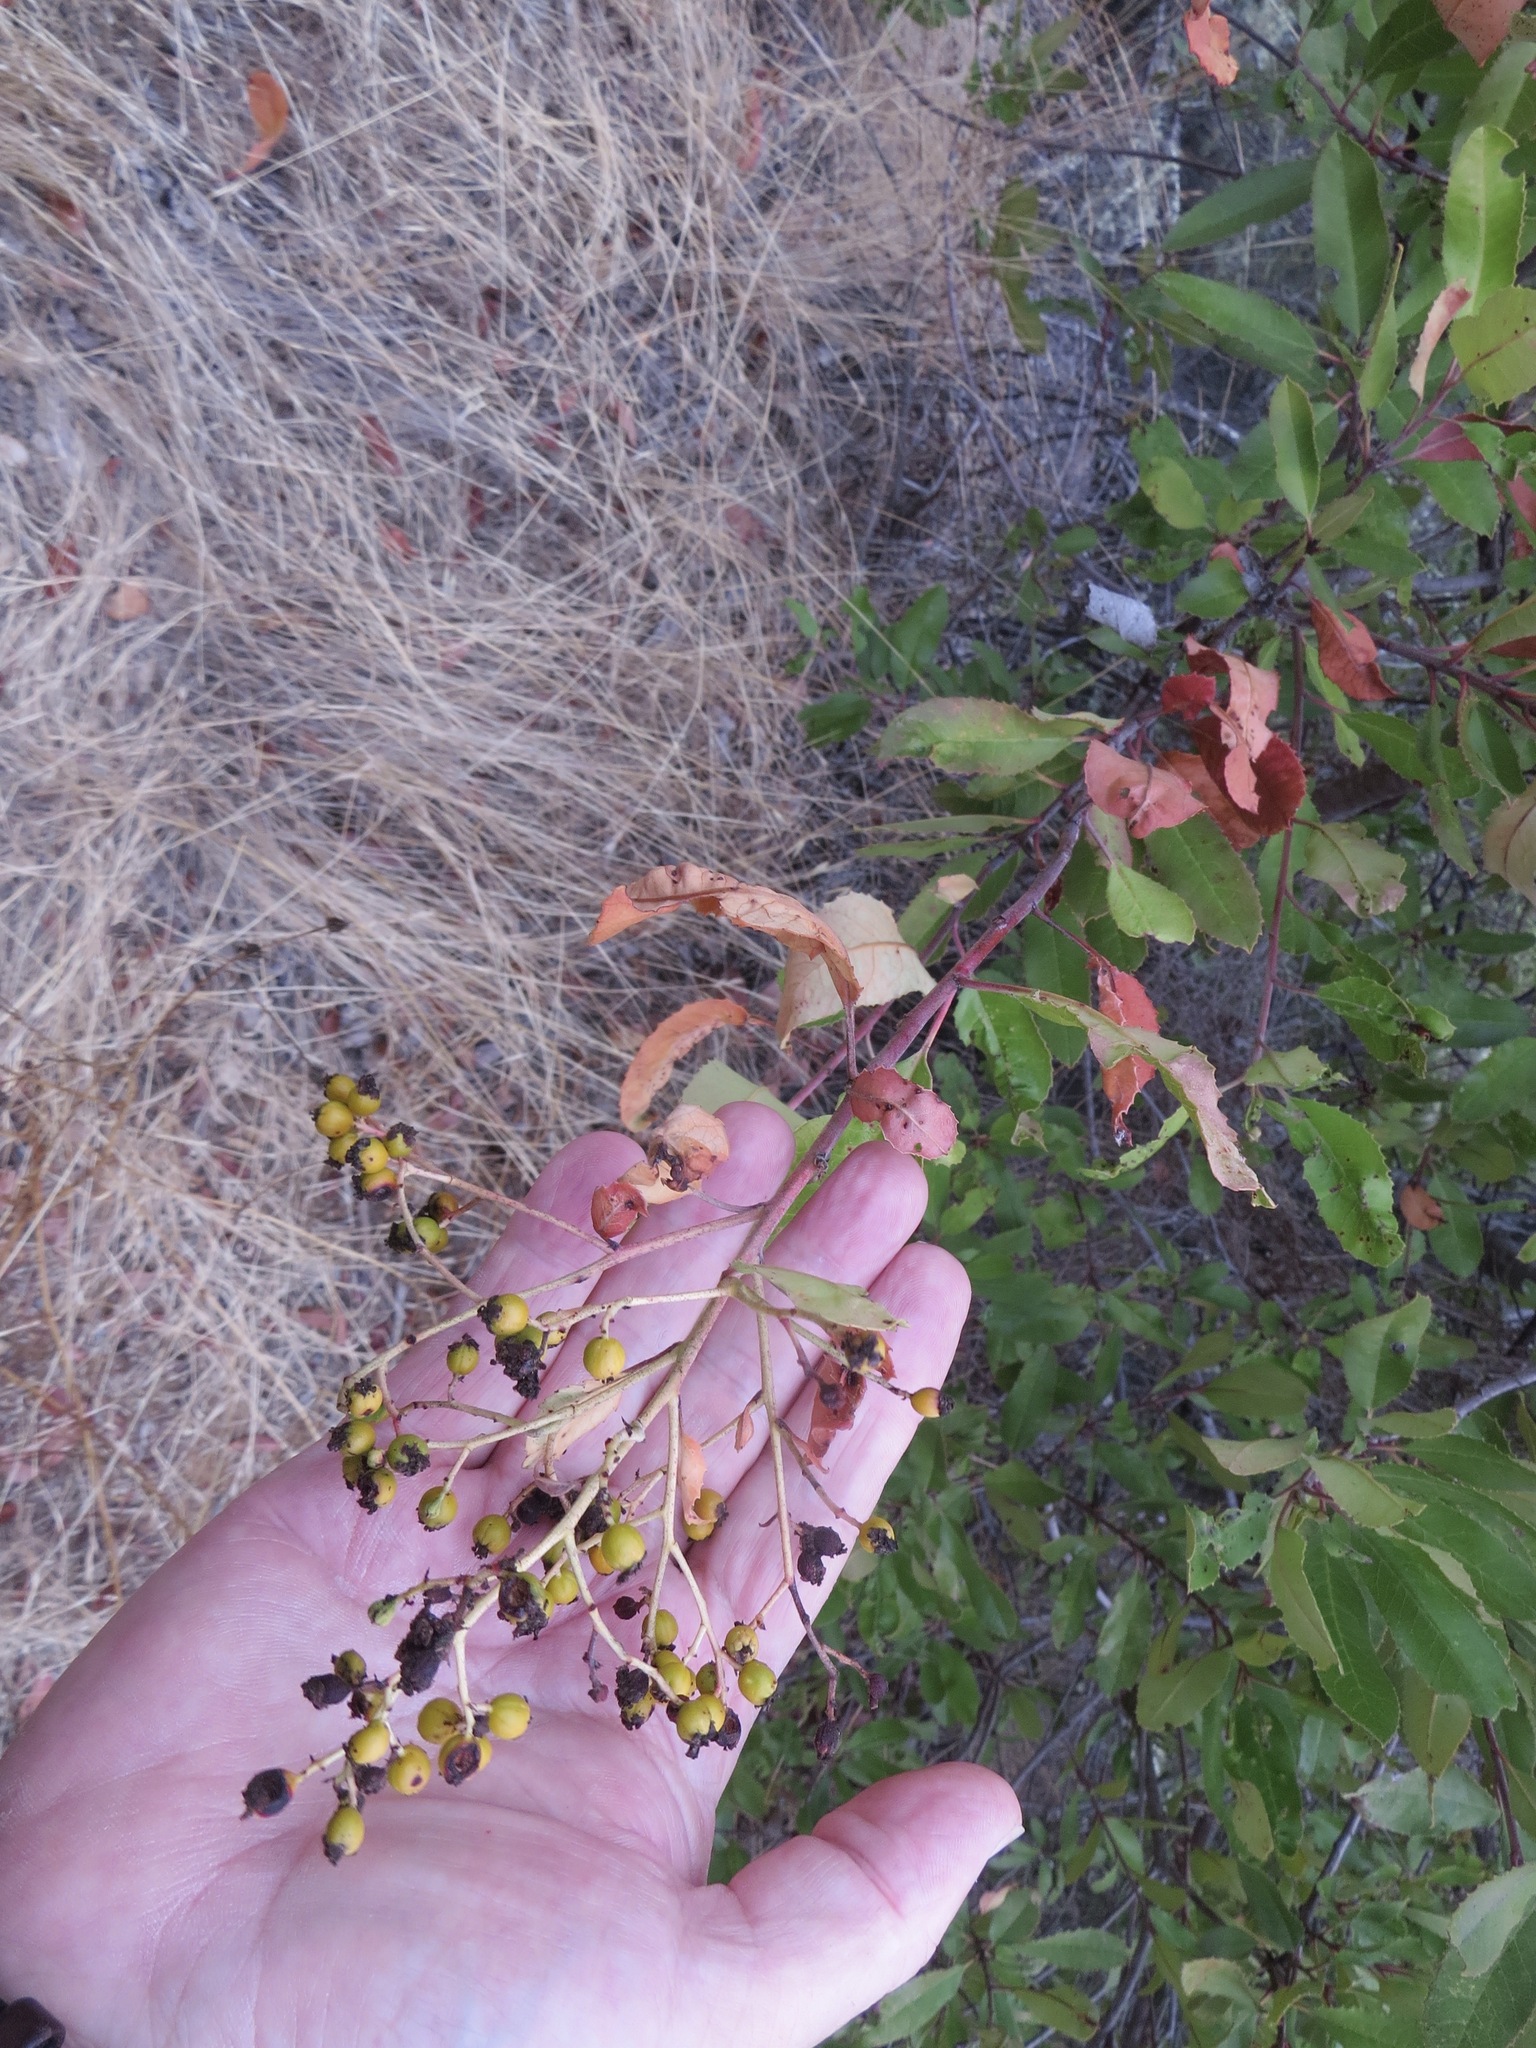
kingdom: Plantae
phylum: Tracheophyta
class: Magnoliopsida
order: Rosales
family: Rosaceae
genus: Heteromeles
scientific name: Heteromeles arbutifolia
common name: California-holly
